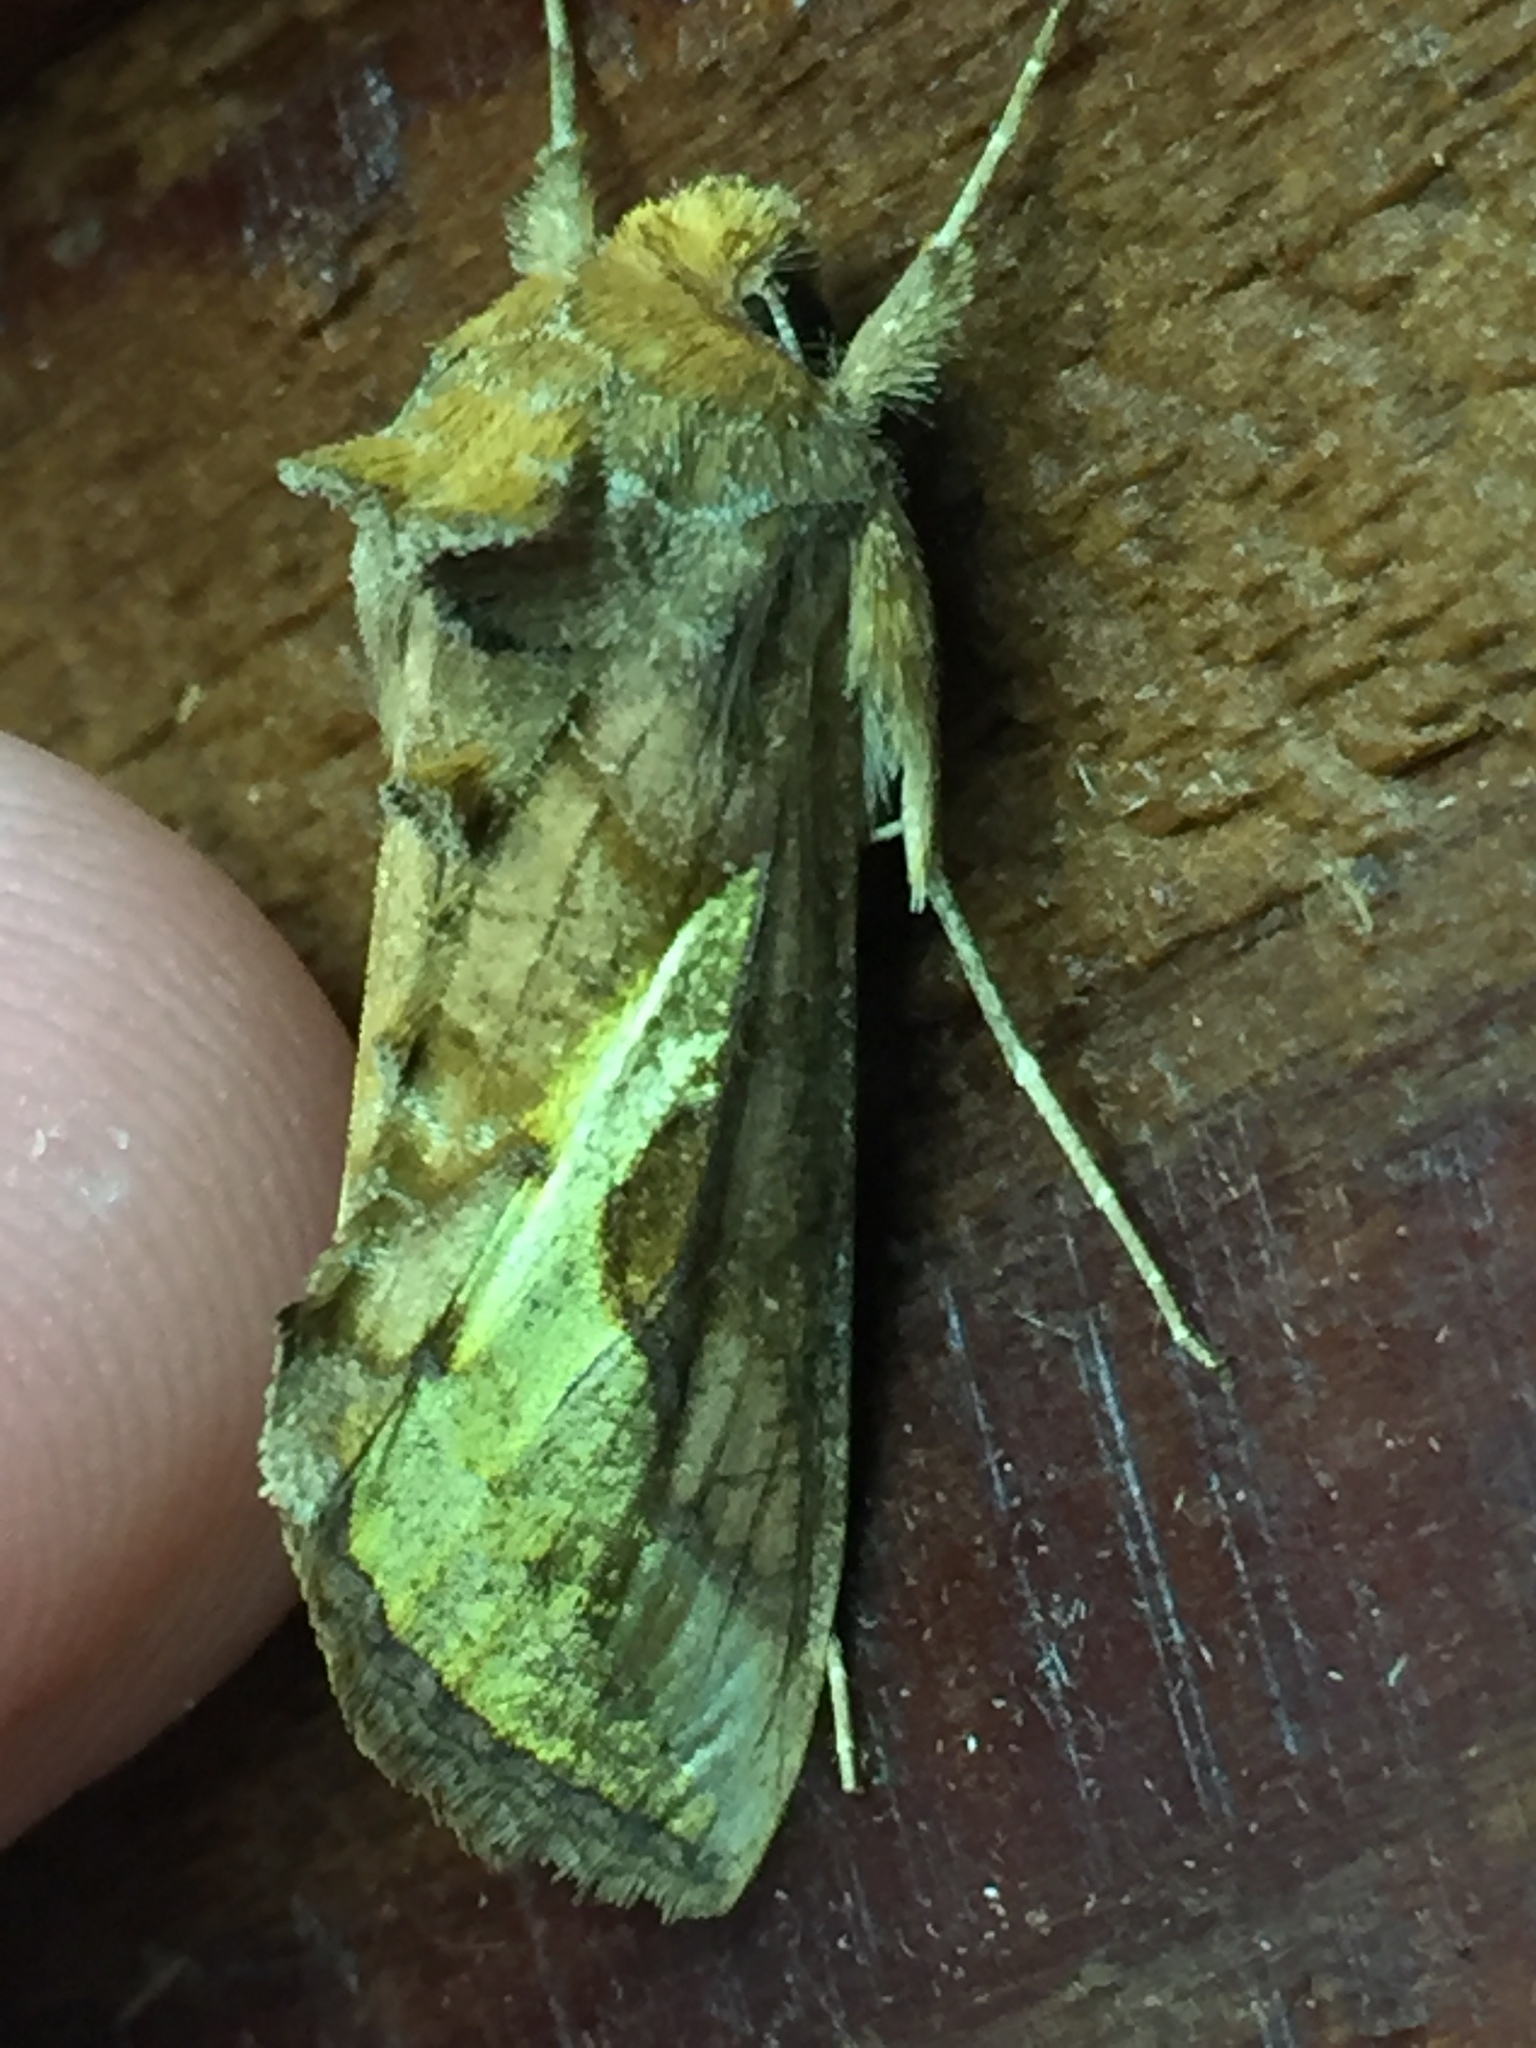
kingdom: Animalia
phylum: Arthropoda
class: Insecta
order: Lepidoptera
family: Noctuidae
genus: Thysanoplusia
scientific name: Thysanoplusia orichalcea
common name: Slender burnished brass, golden plusia
